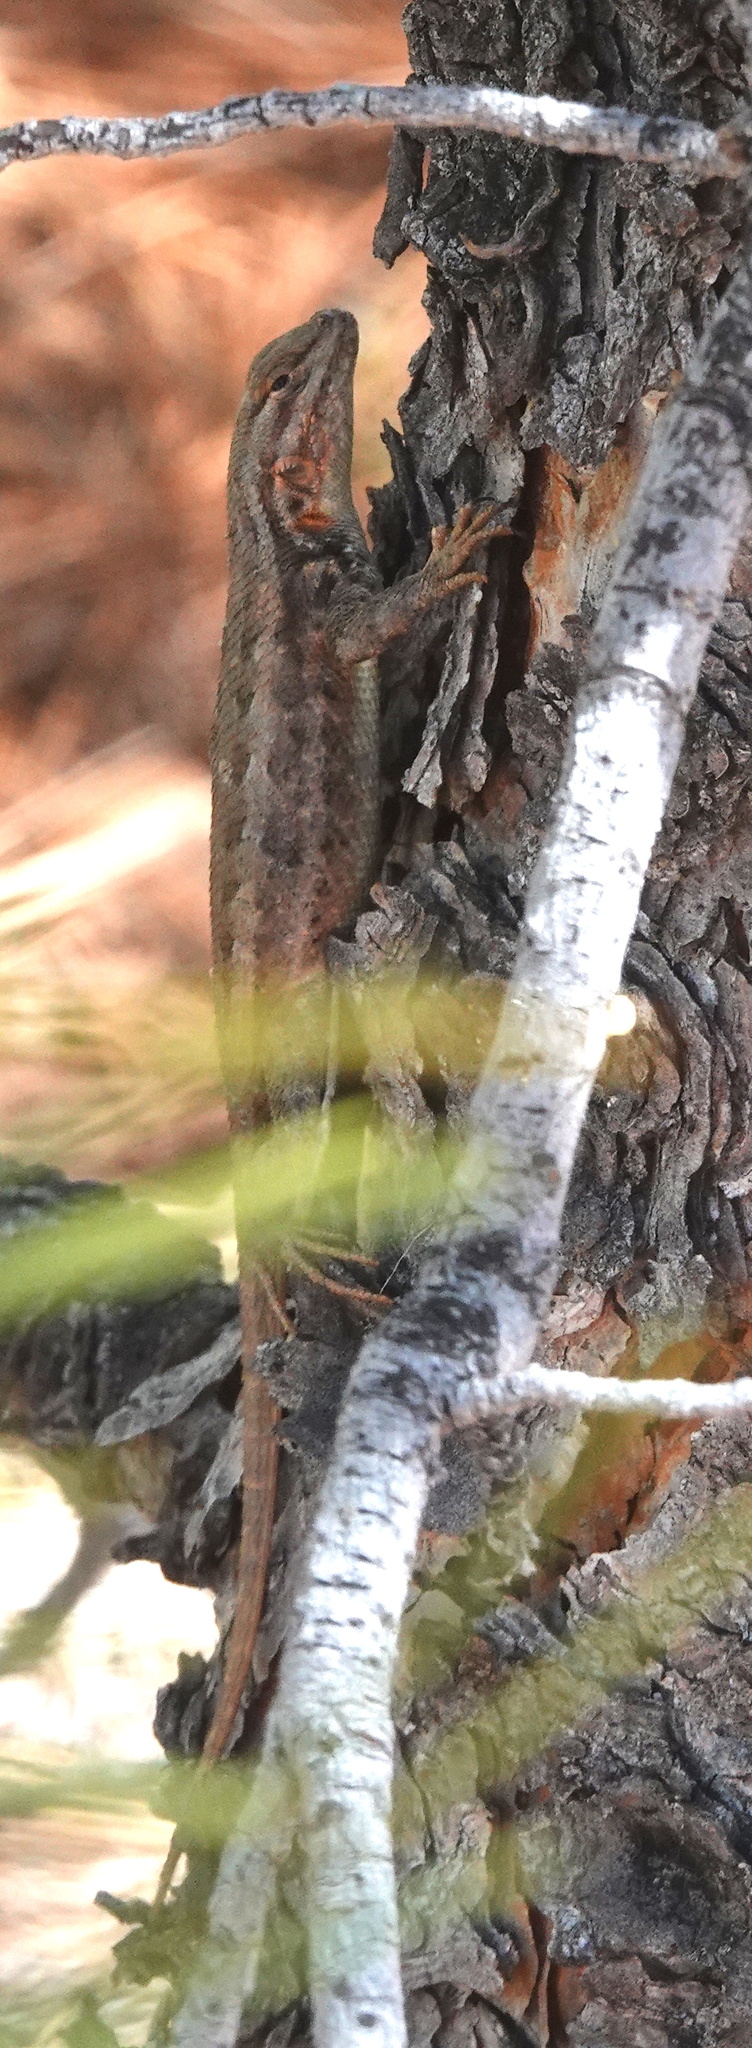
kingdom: Animalia
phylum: Chordata
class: Squamata
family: Phrynosomatidae
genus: Sceloporus
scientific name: Sceloporus graciosus
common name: Sagebrush lizard
